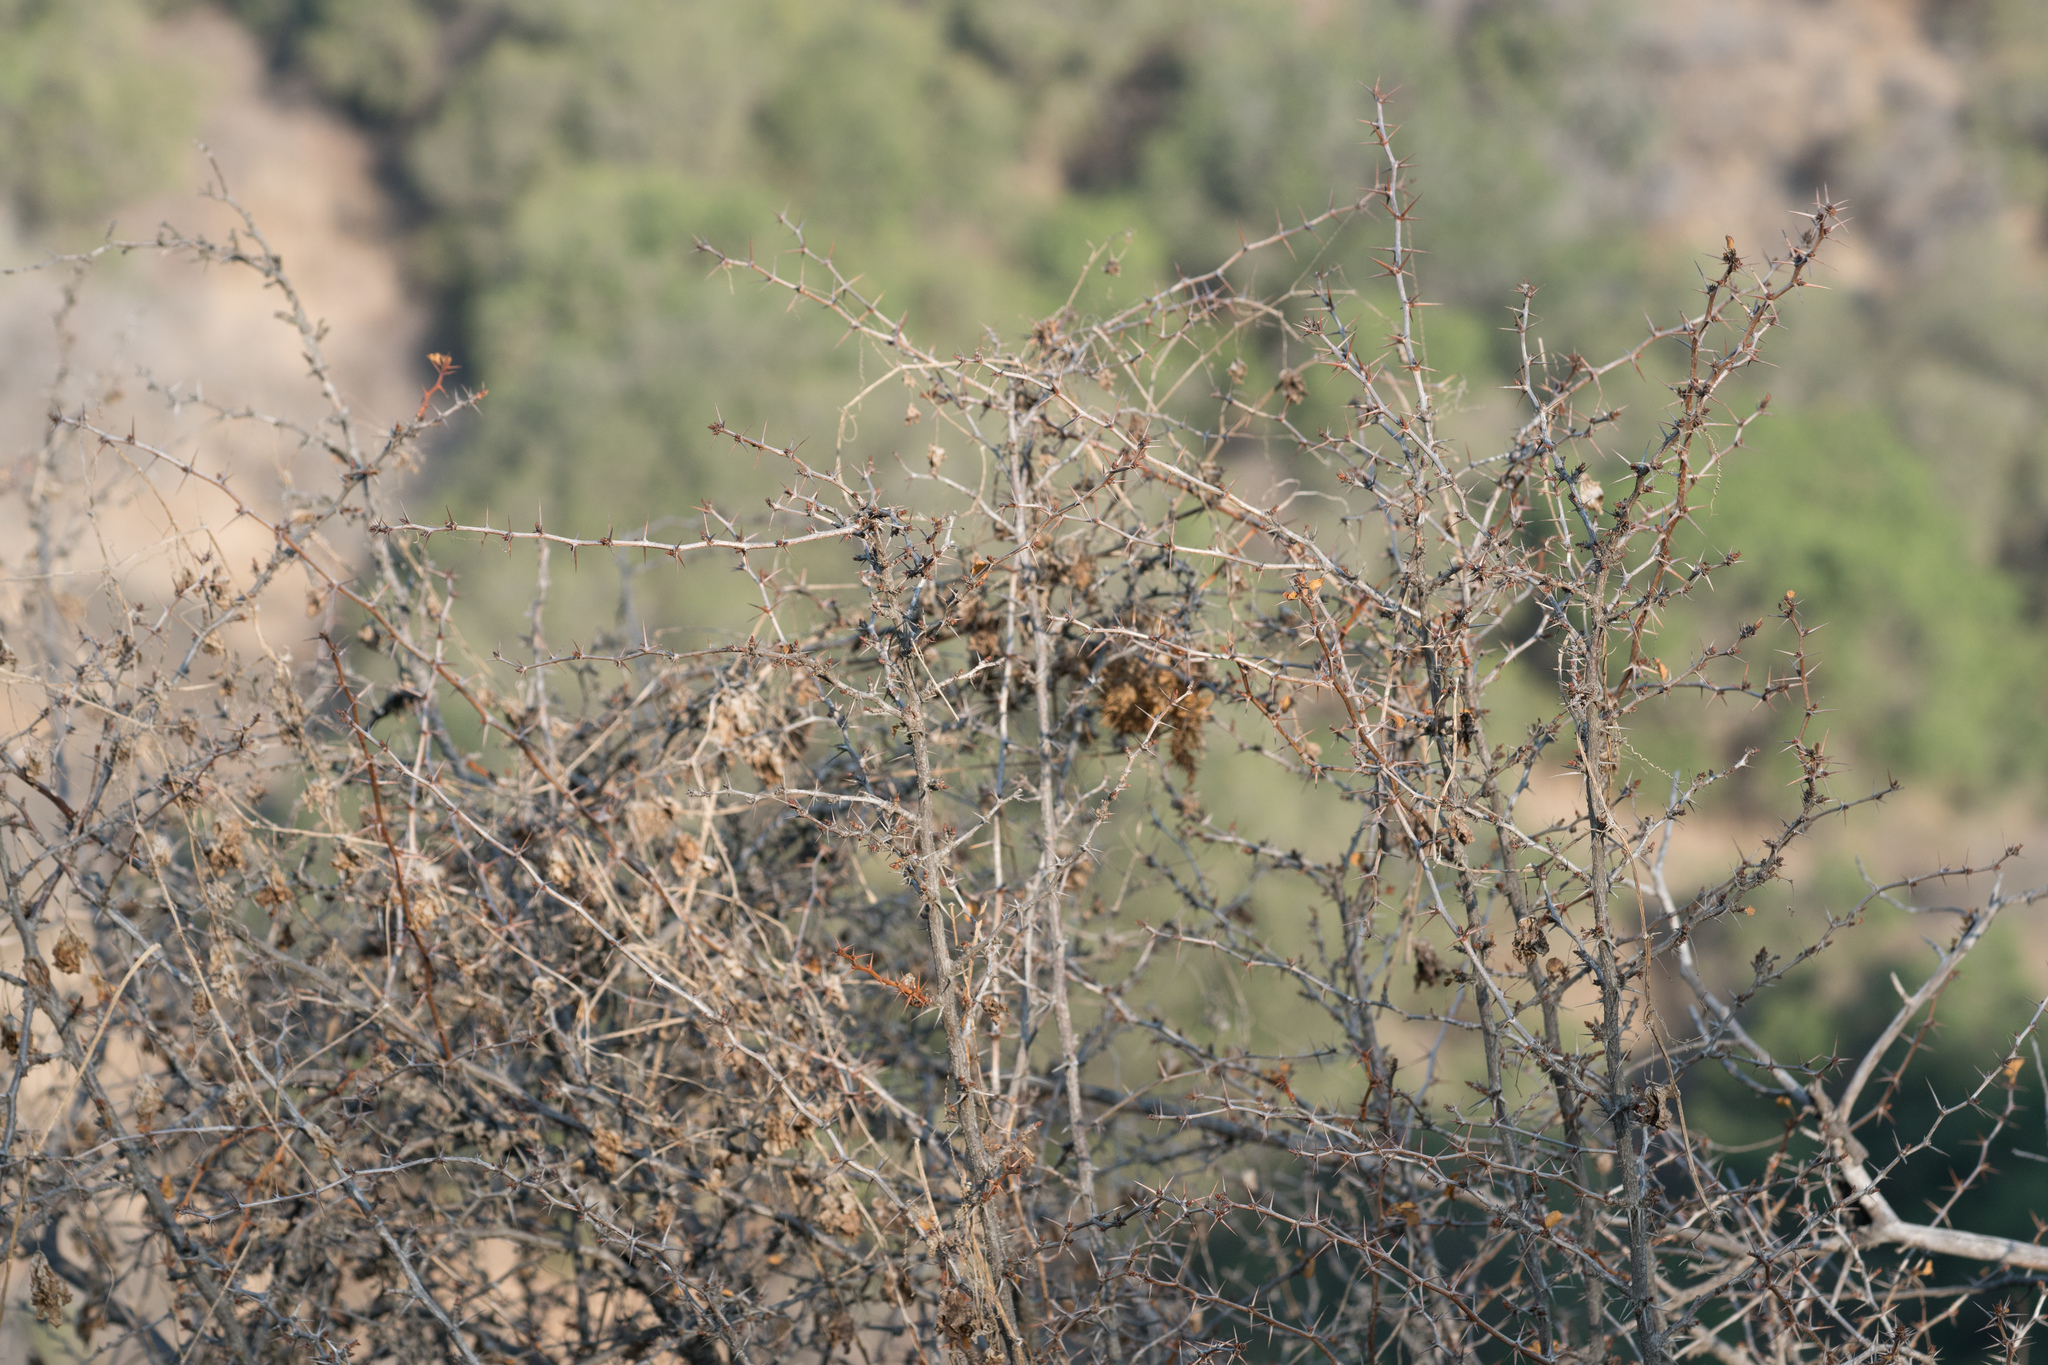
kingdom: Plantae
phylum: Tracheophyta
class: Magnoliopsida
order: Saxifragales
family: Grossulariaceae
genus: Ribes
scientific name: Ribes speciosum
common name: Fuchsia-flower gooseberry
